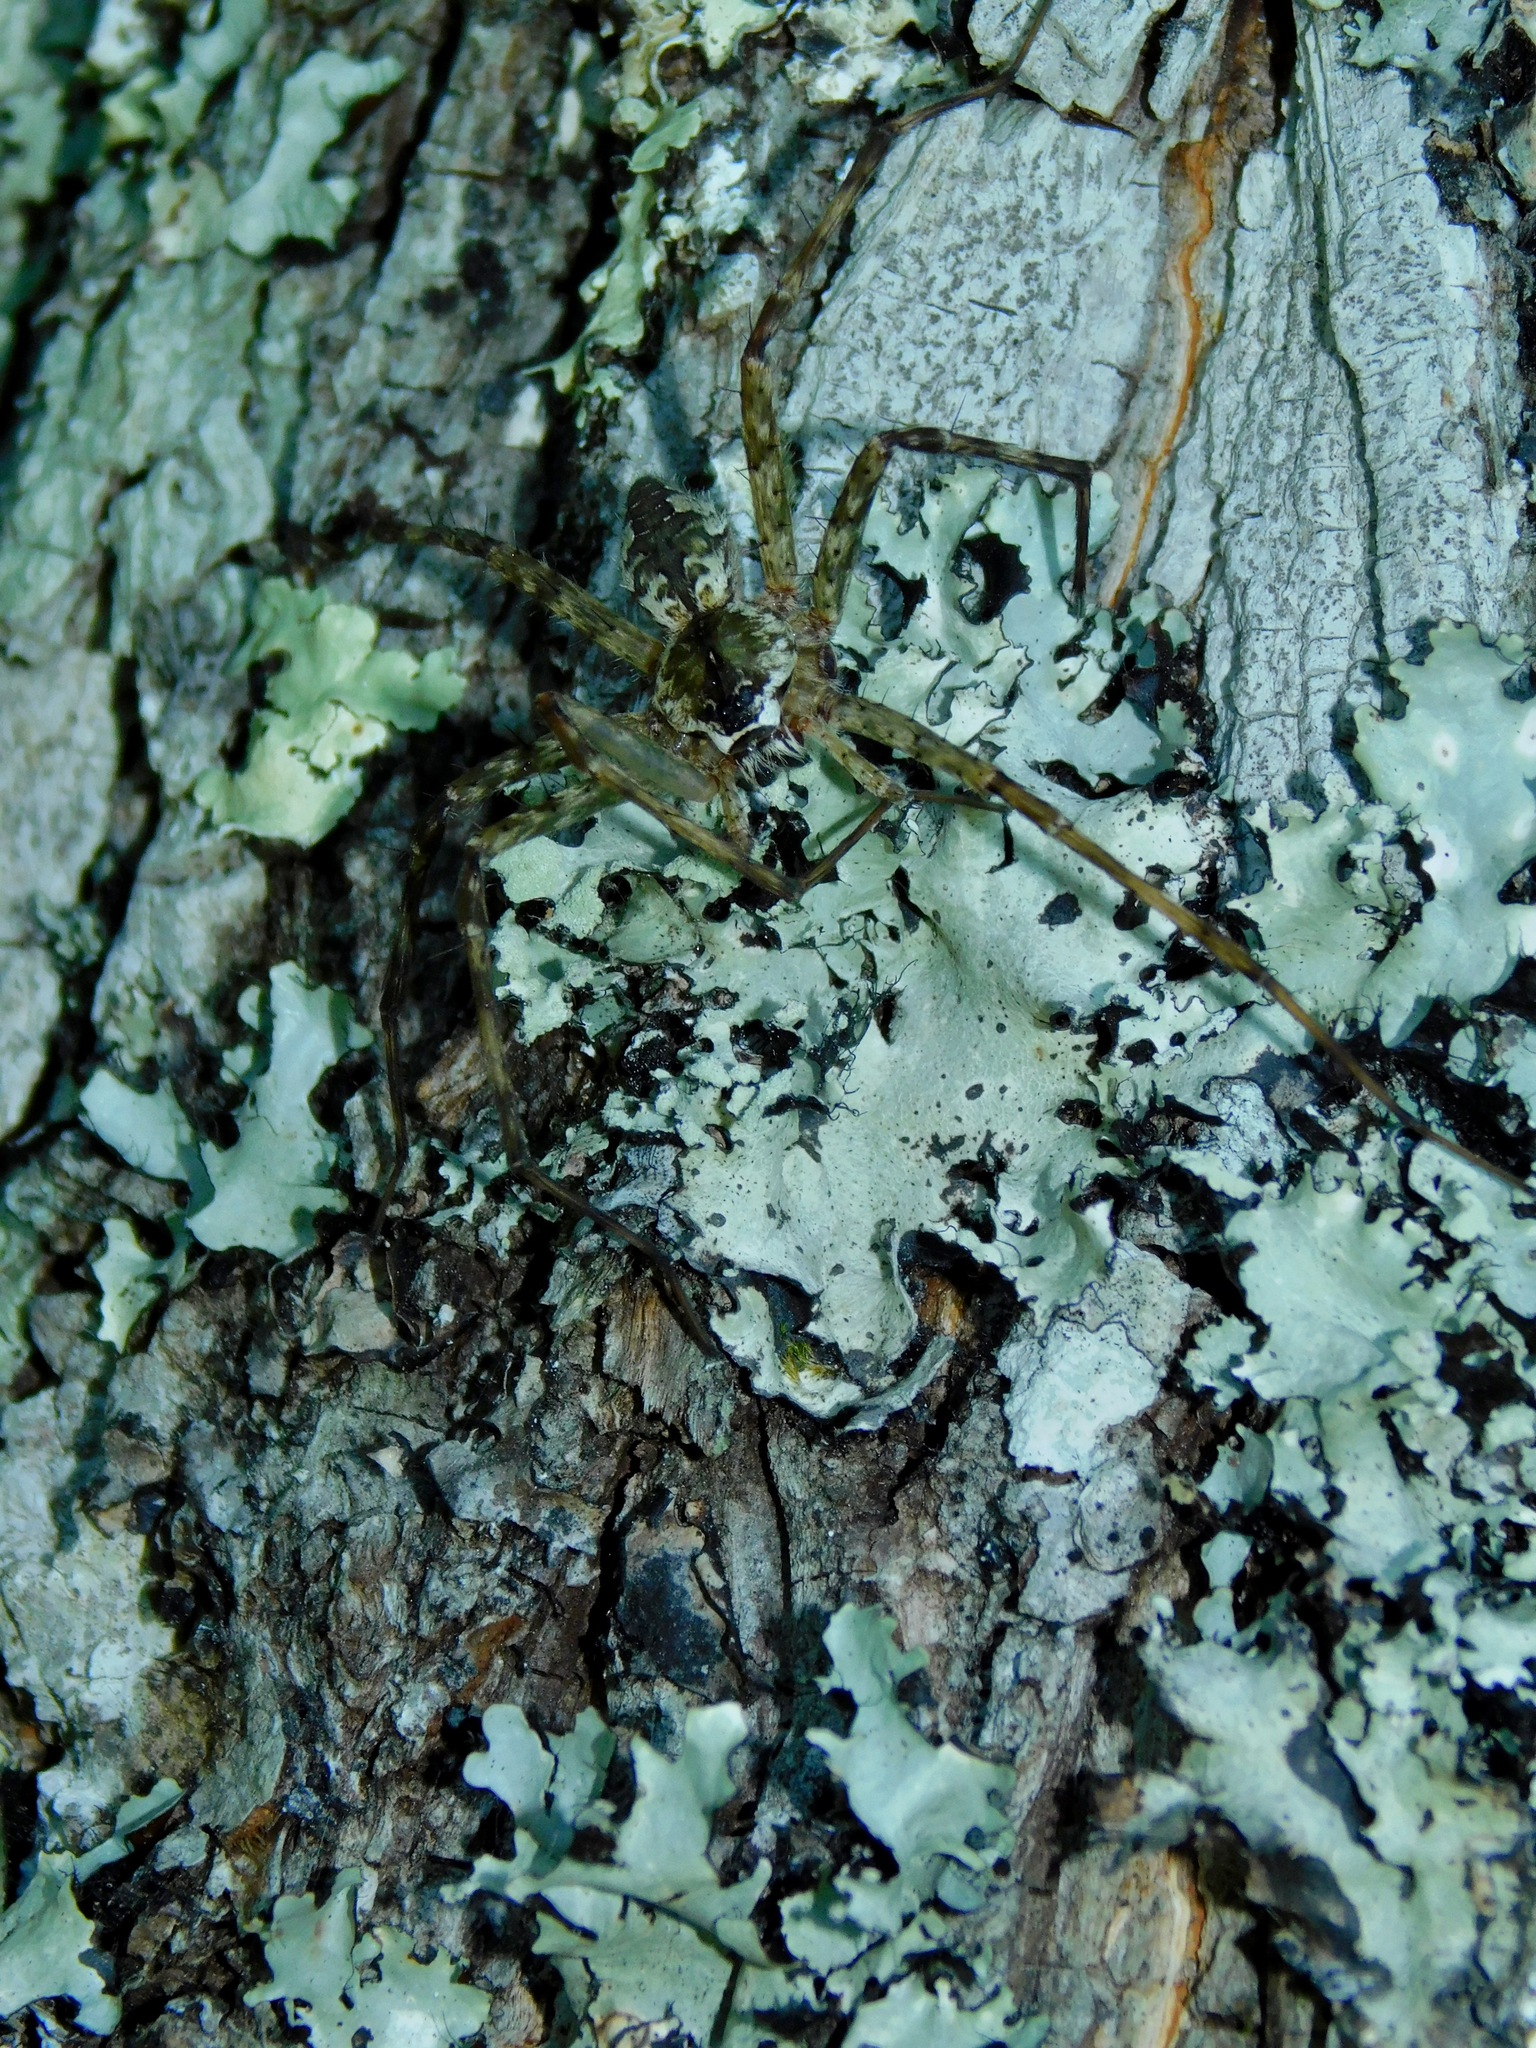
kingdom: Animalia
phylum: Arthropoda
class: Arachnida
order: Araneae
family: Pisauridae
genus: Dolomedes
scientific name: Dolomedes albineus
